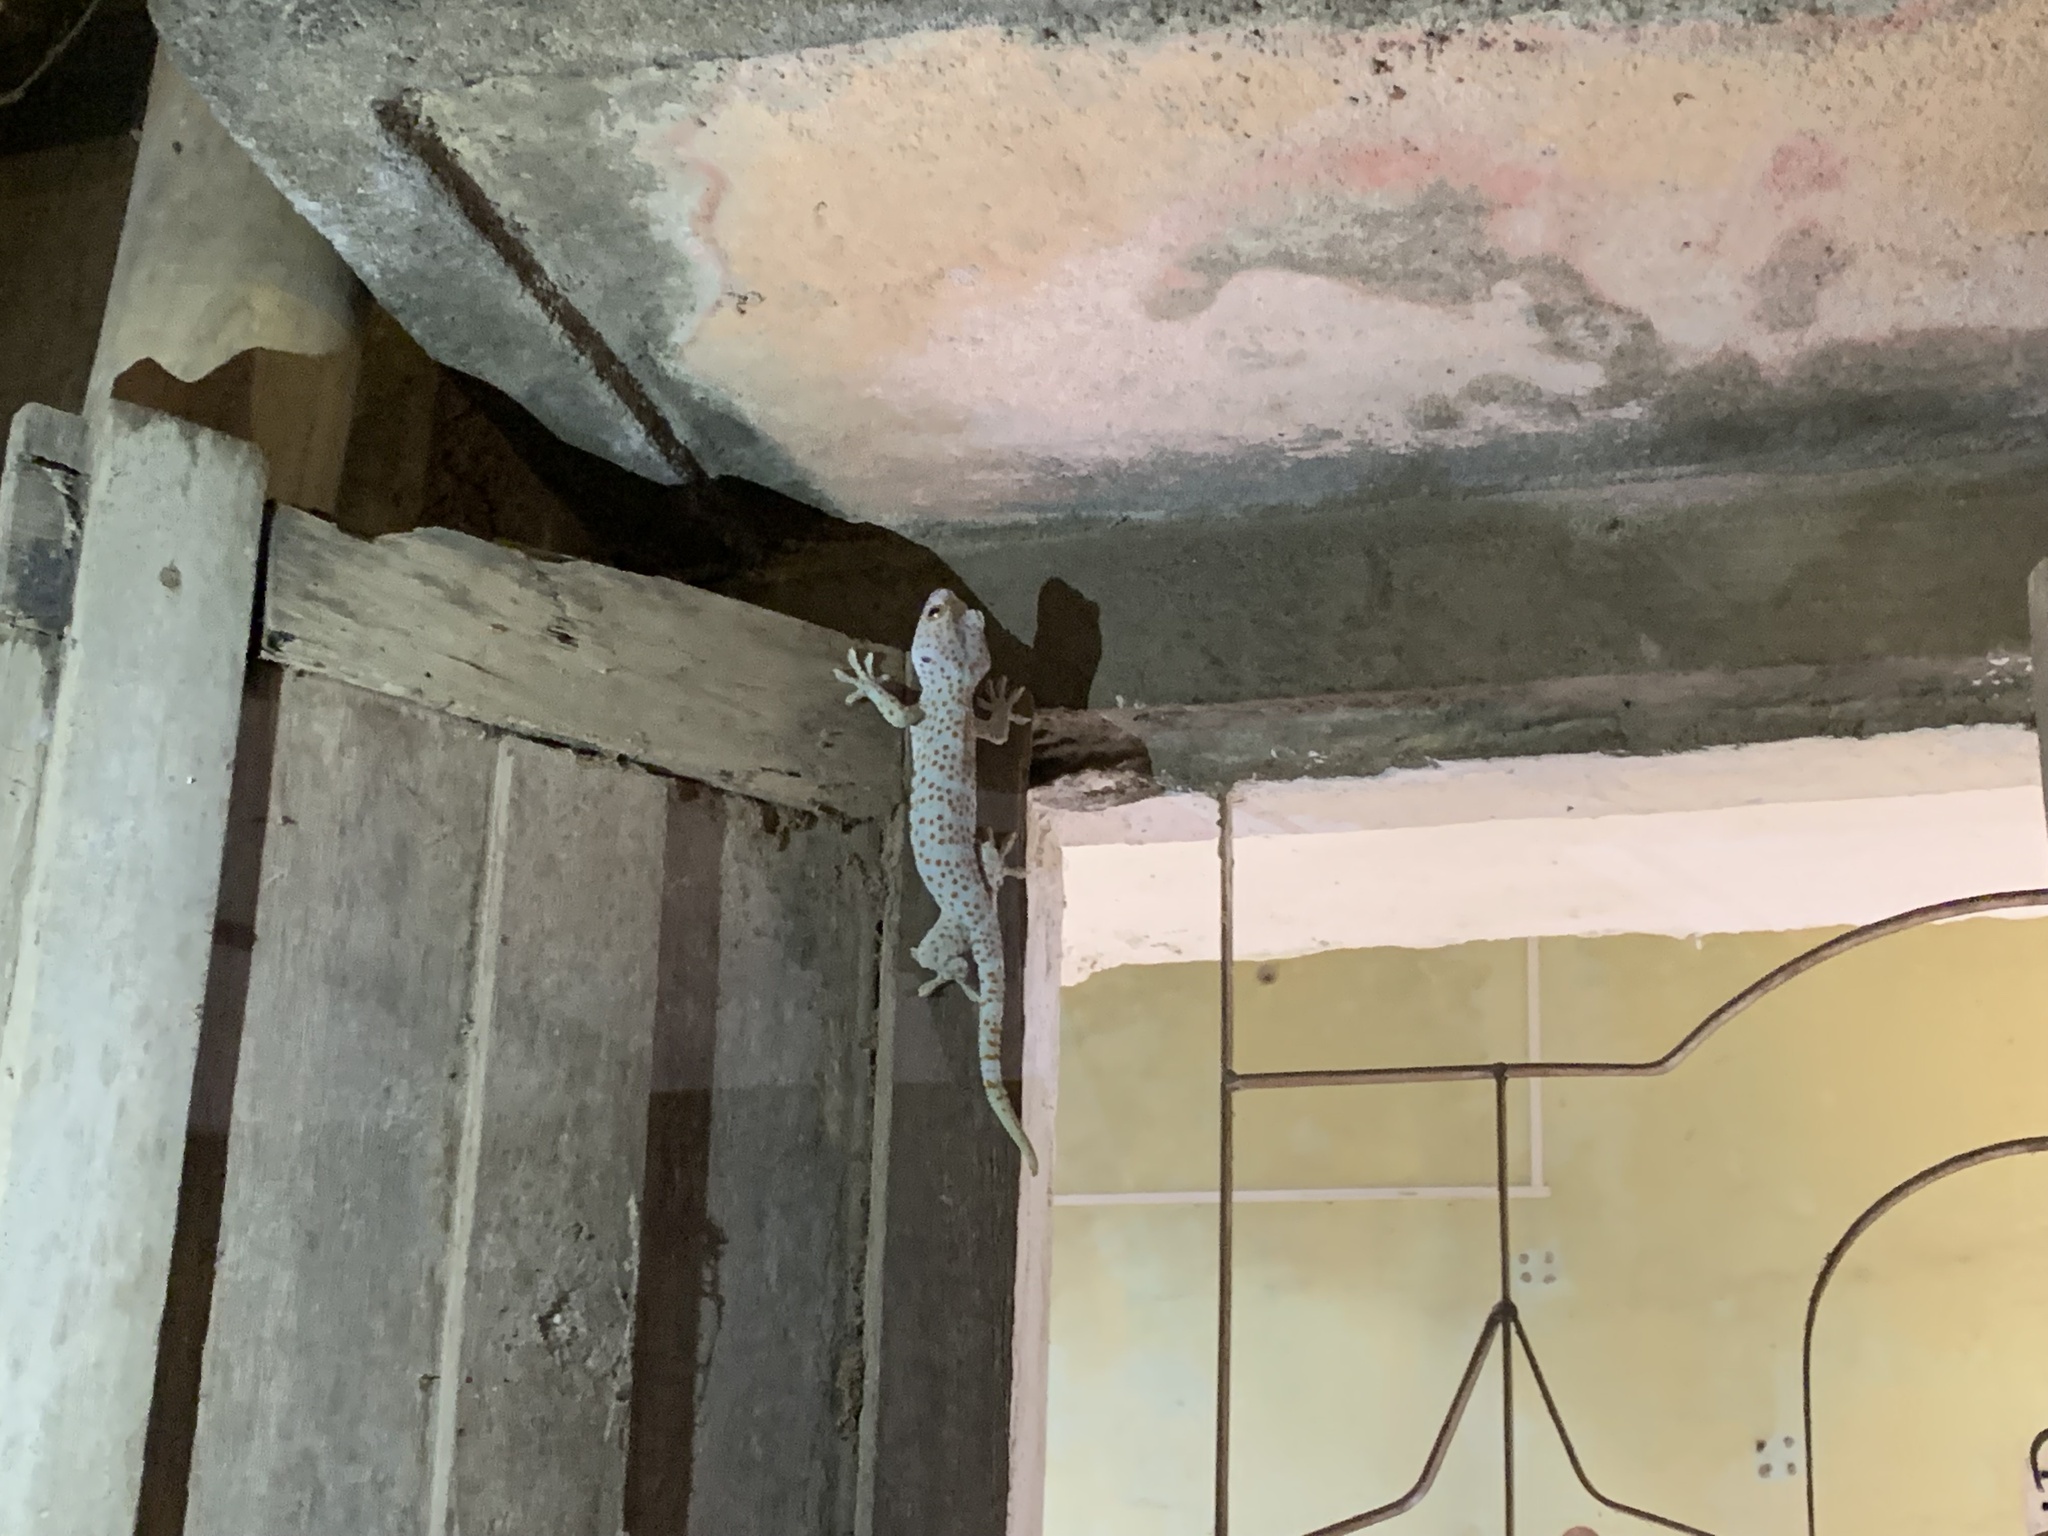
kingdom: Animalia
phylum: Chordata
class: Squamata
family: Gekkonidae
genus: Gekko
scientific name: Gekko gecko
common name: Tokay gecko
